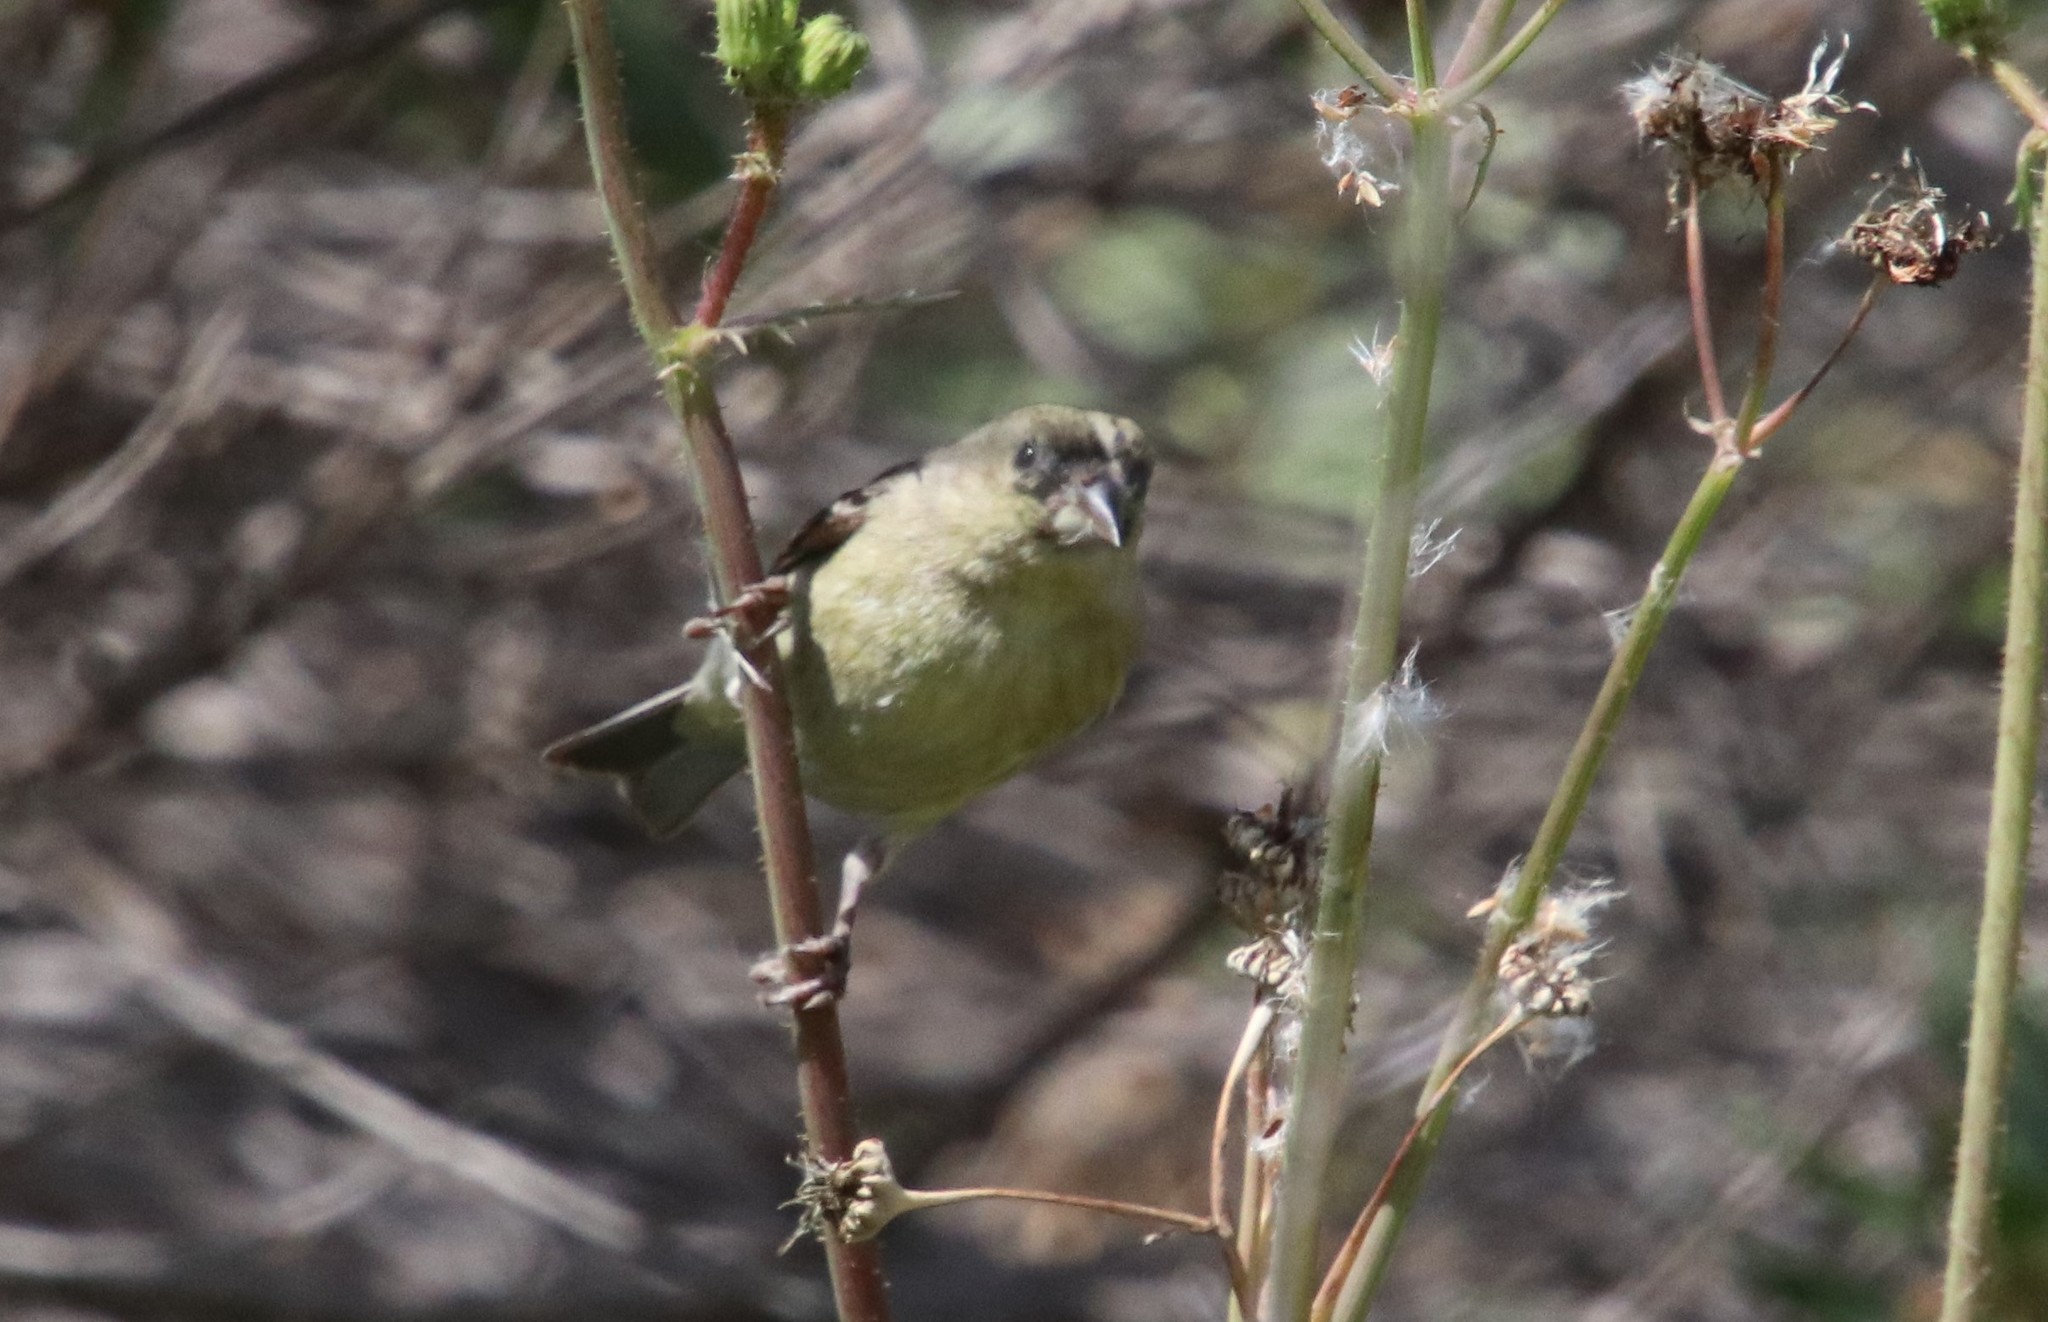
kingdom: Animalia
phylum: Chordata
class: Aves
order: Passeriformes
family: Fringillidae
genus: Spinus
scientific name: Spinus psaltria
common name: Lesser goldfinch
